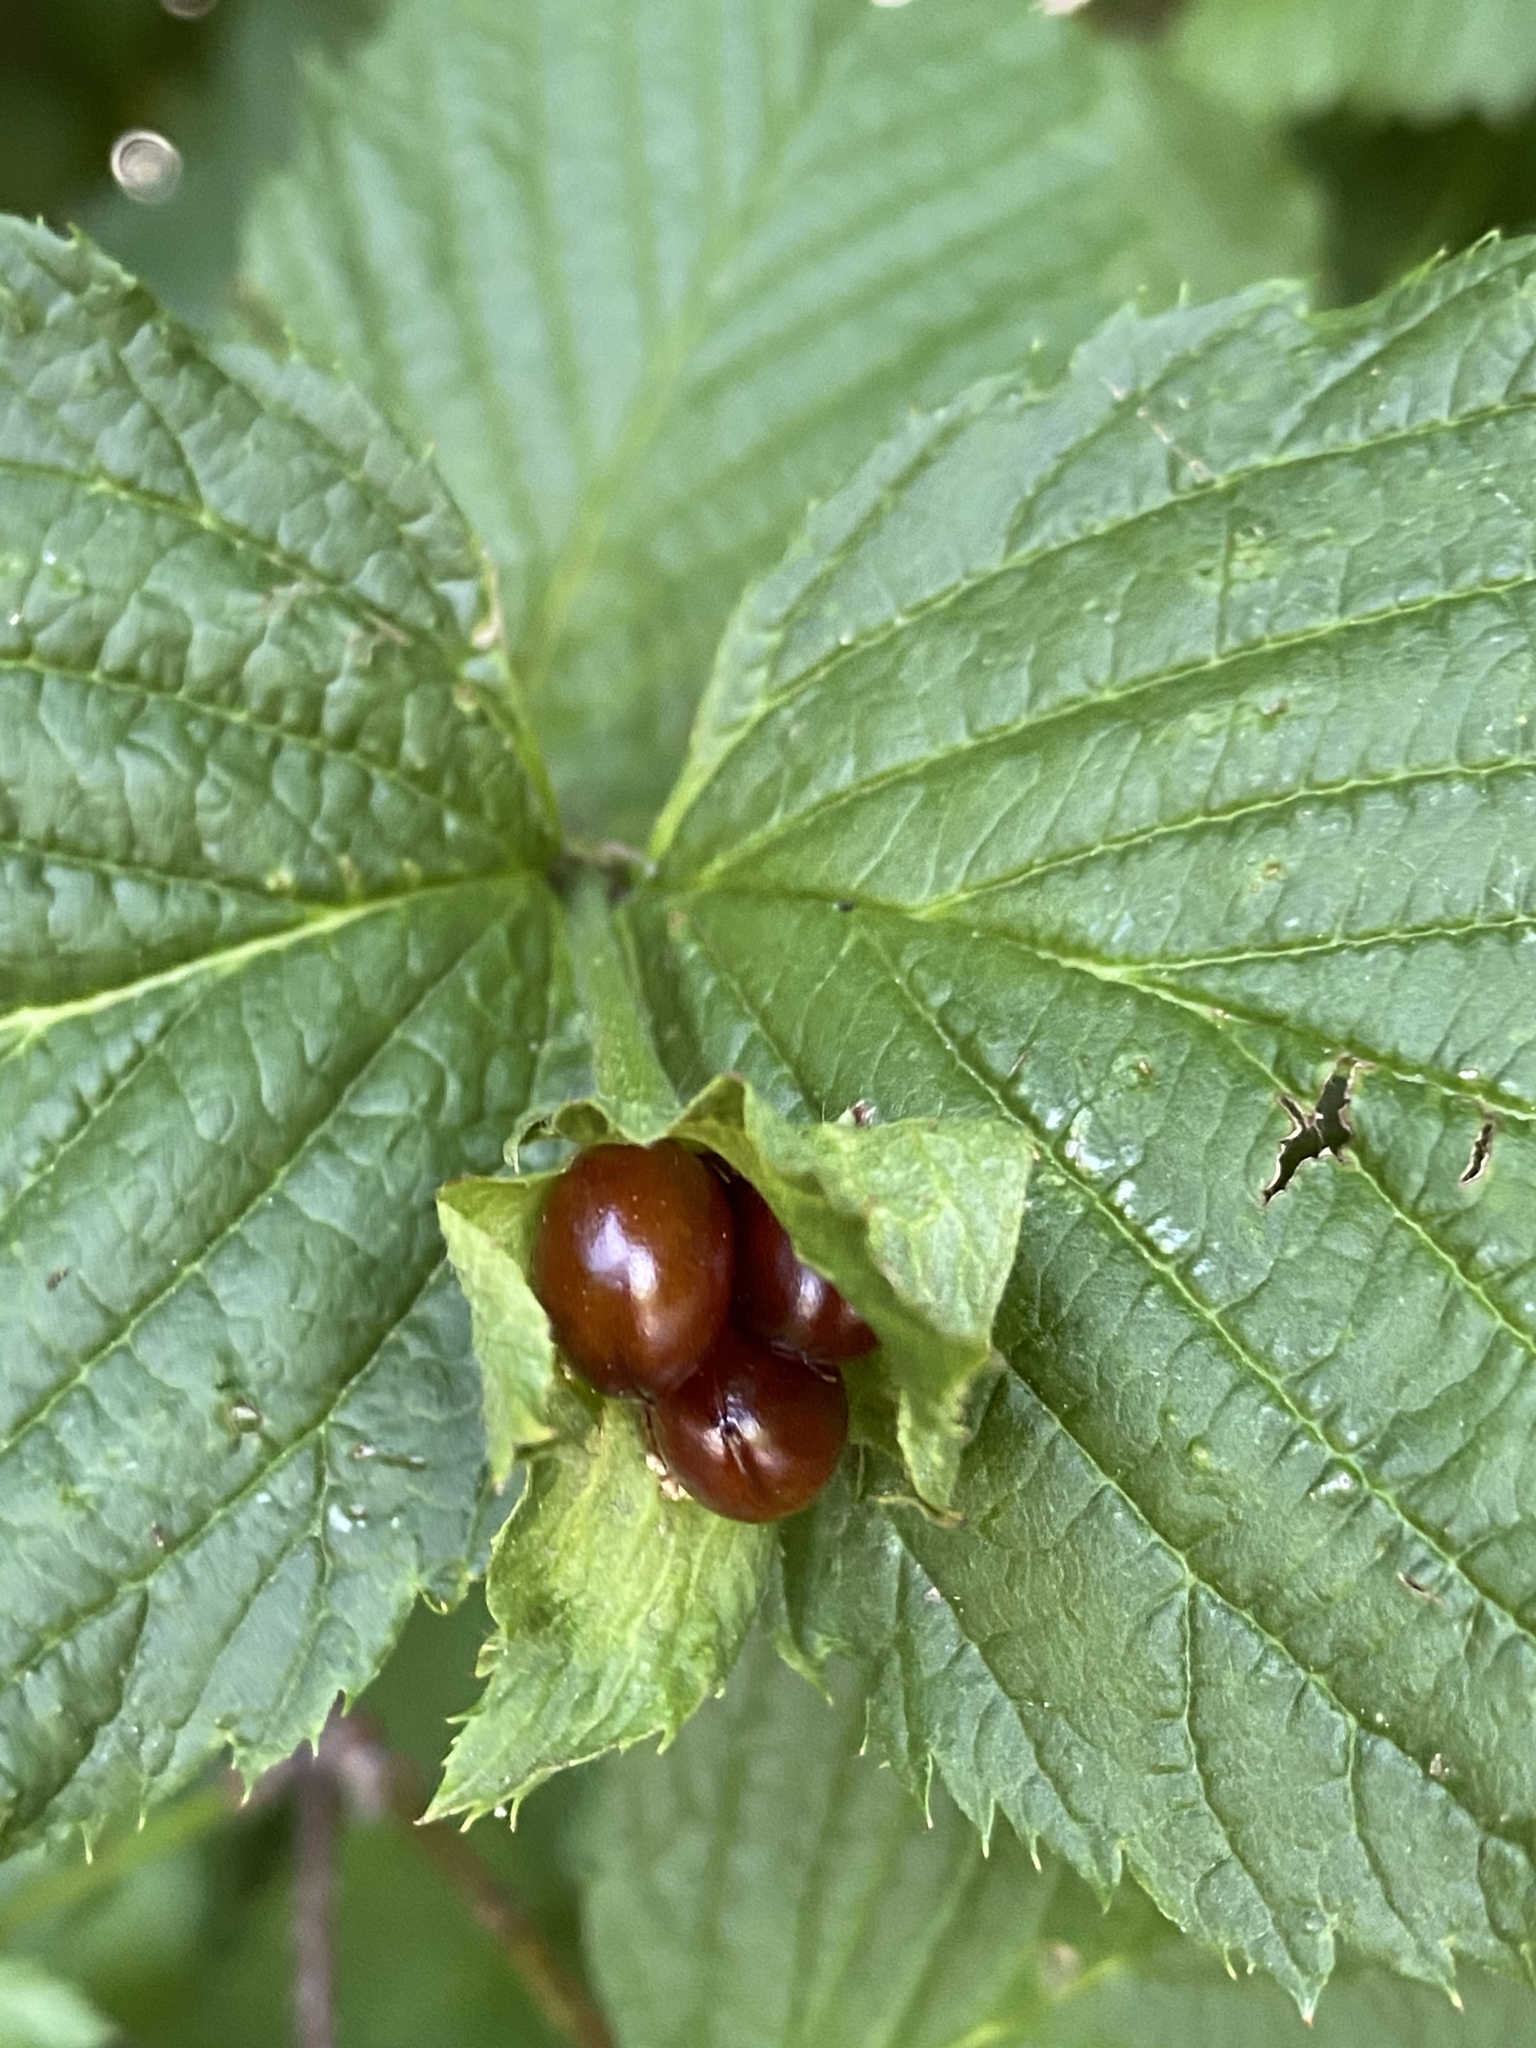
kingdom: Plantae
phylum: Tracheophyta
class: Magnoliopsida
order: Rosales
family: Rosaceae
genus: Rhodotypos
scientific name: Rhodotypos scandens
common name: Jetbead
